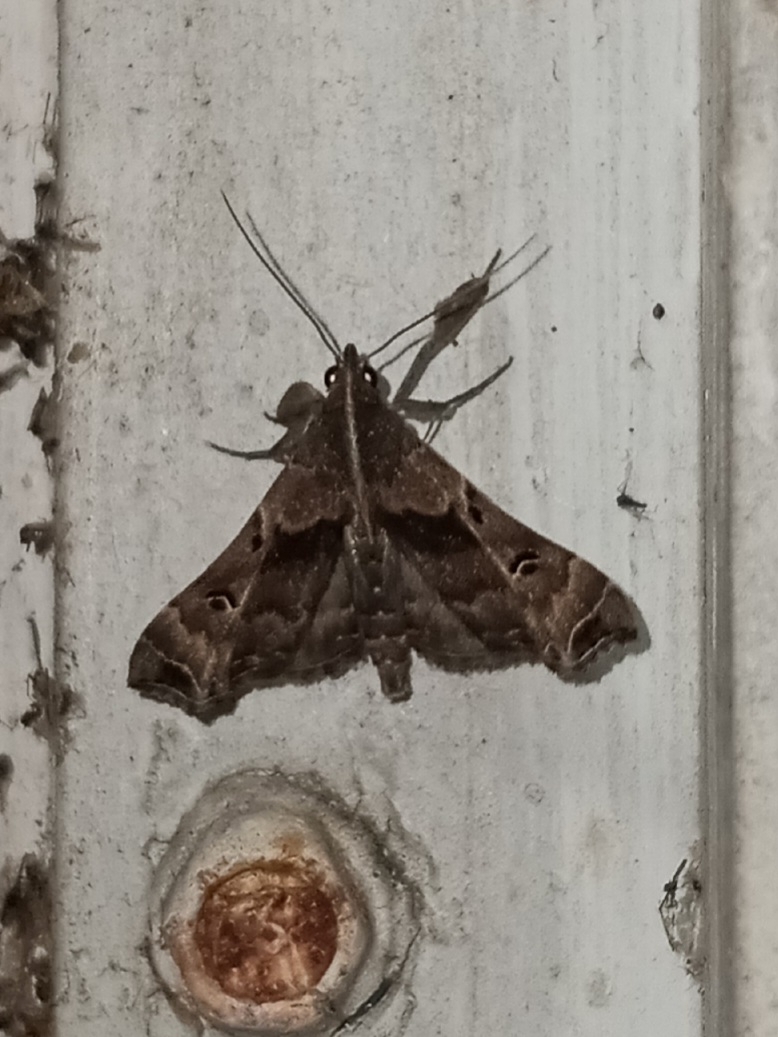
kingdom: Animalia
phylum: Arthropoda
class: Insecta
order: Lepidoptera
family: Erebidae
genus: Palthis
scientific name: Palthis asopialis
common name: Faint-spotted palthis moth
